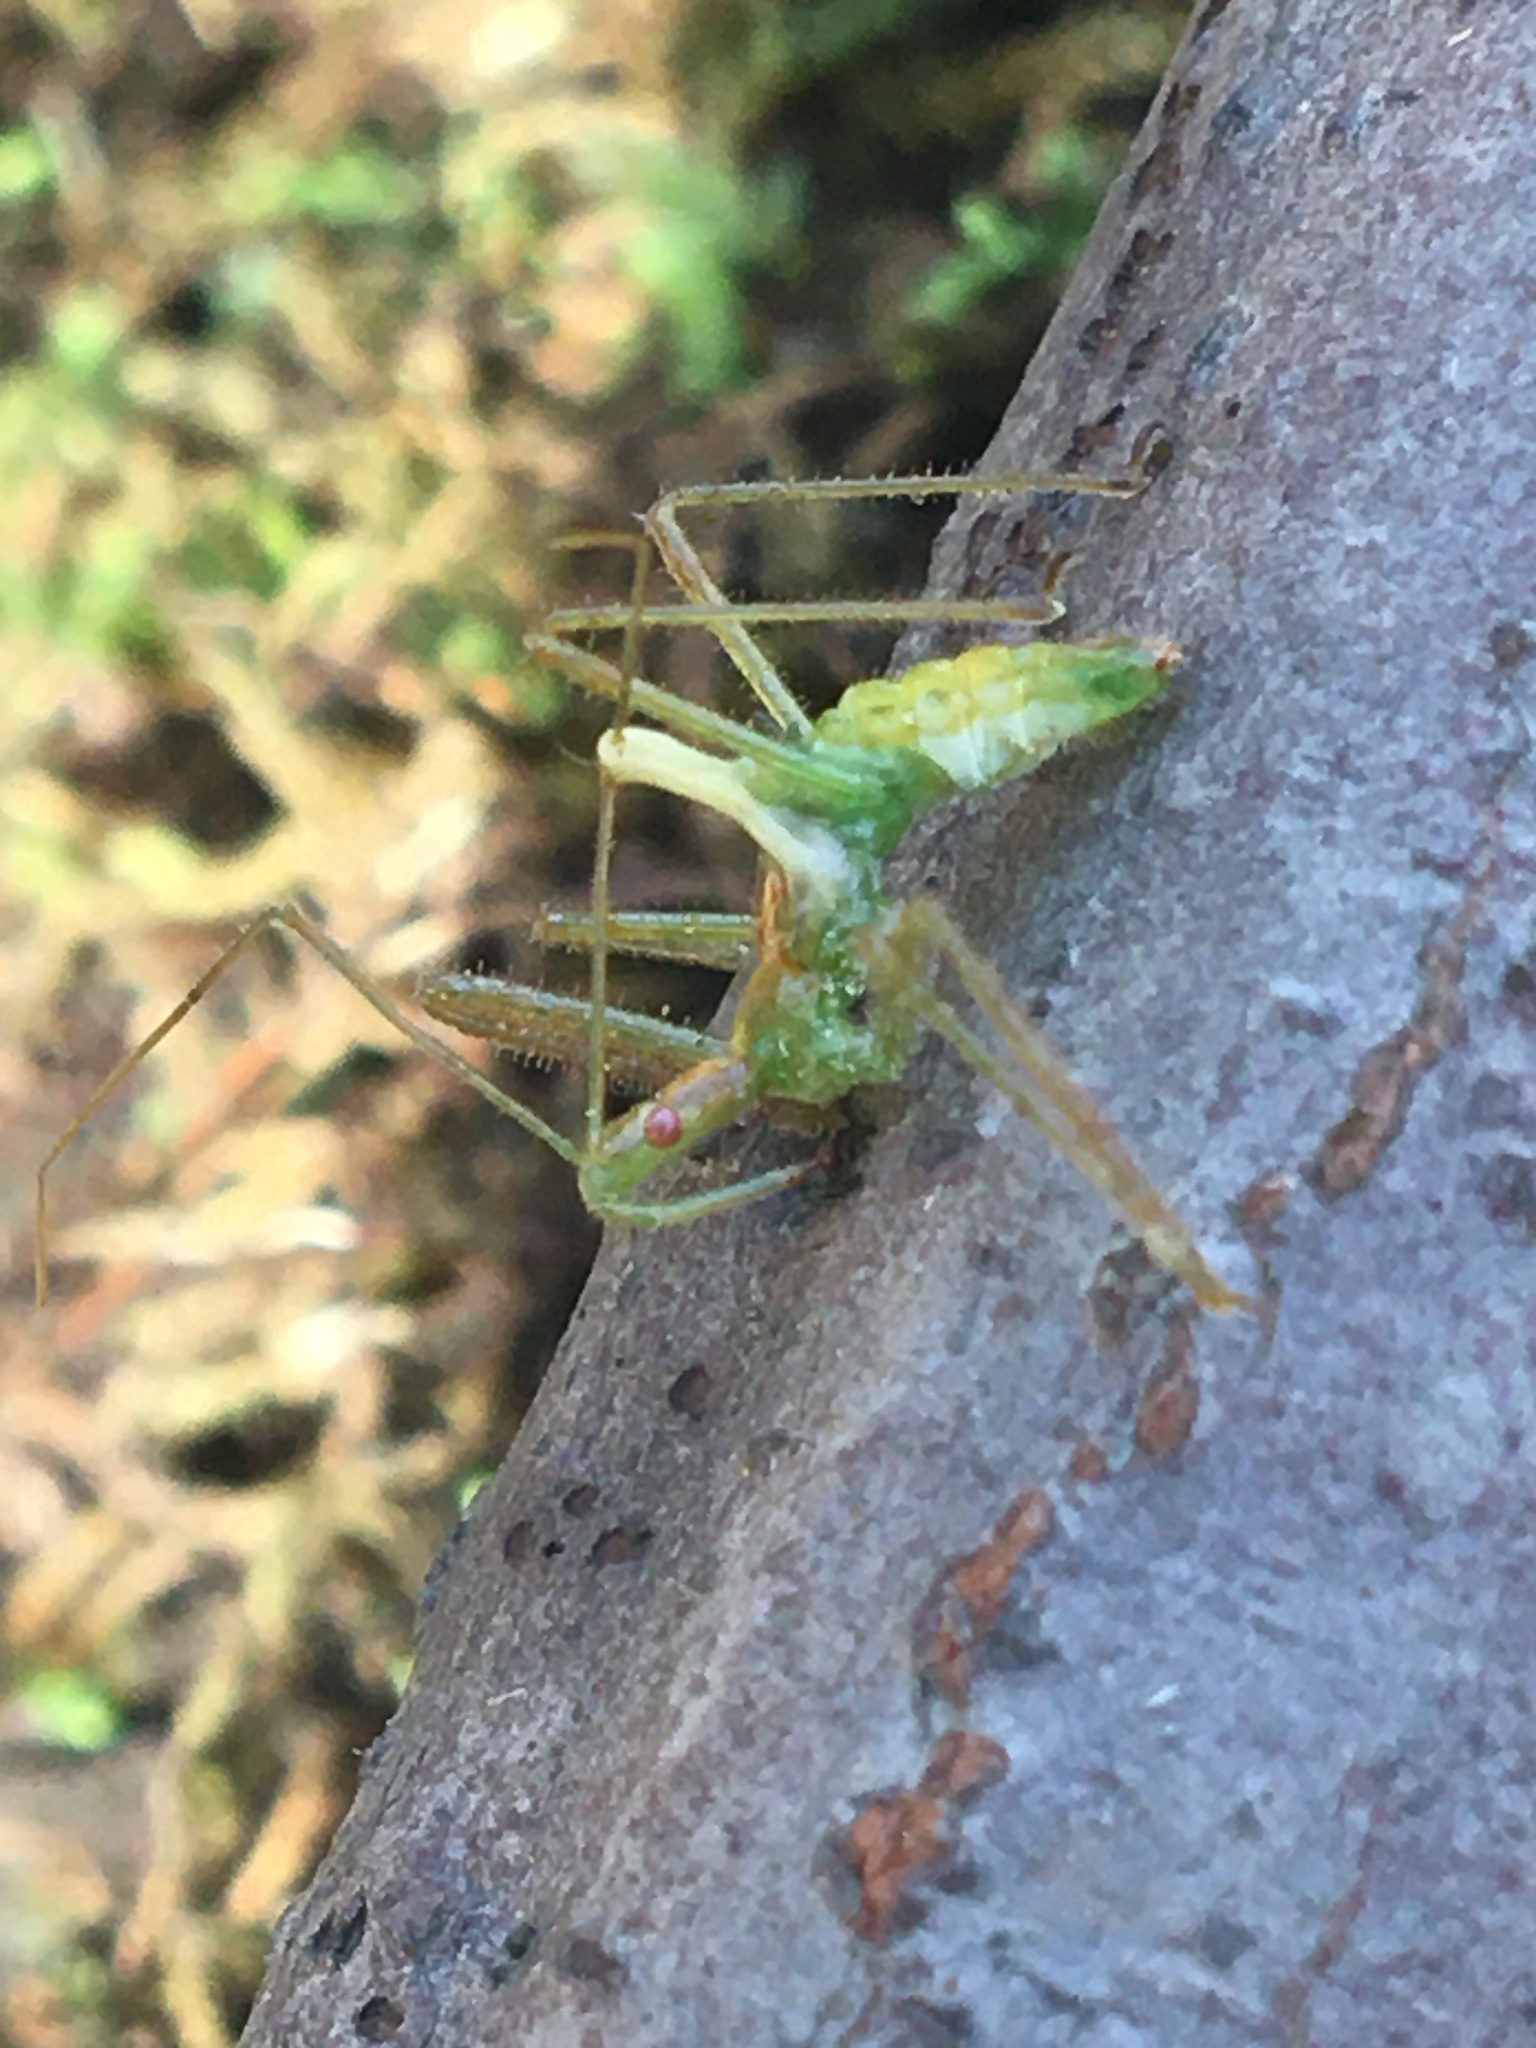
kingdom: Animalia
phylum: Arthropoda
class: Insecta
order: Hemiptera
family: Reduviidae
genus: Zelus
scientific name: Zelus luridus
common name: Pale green assassin bug
